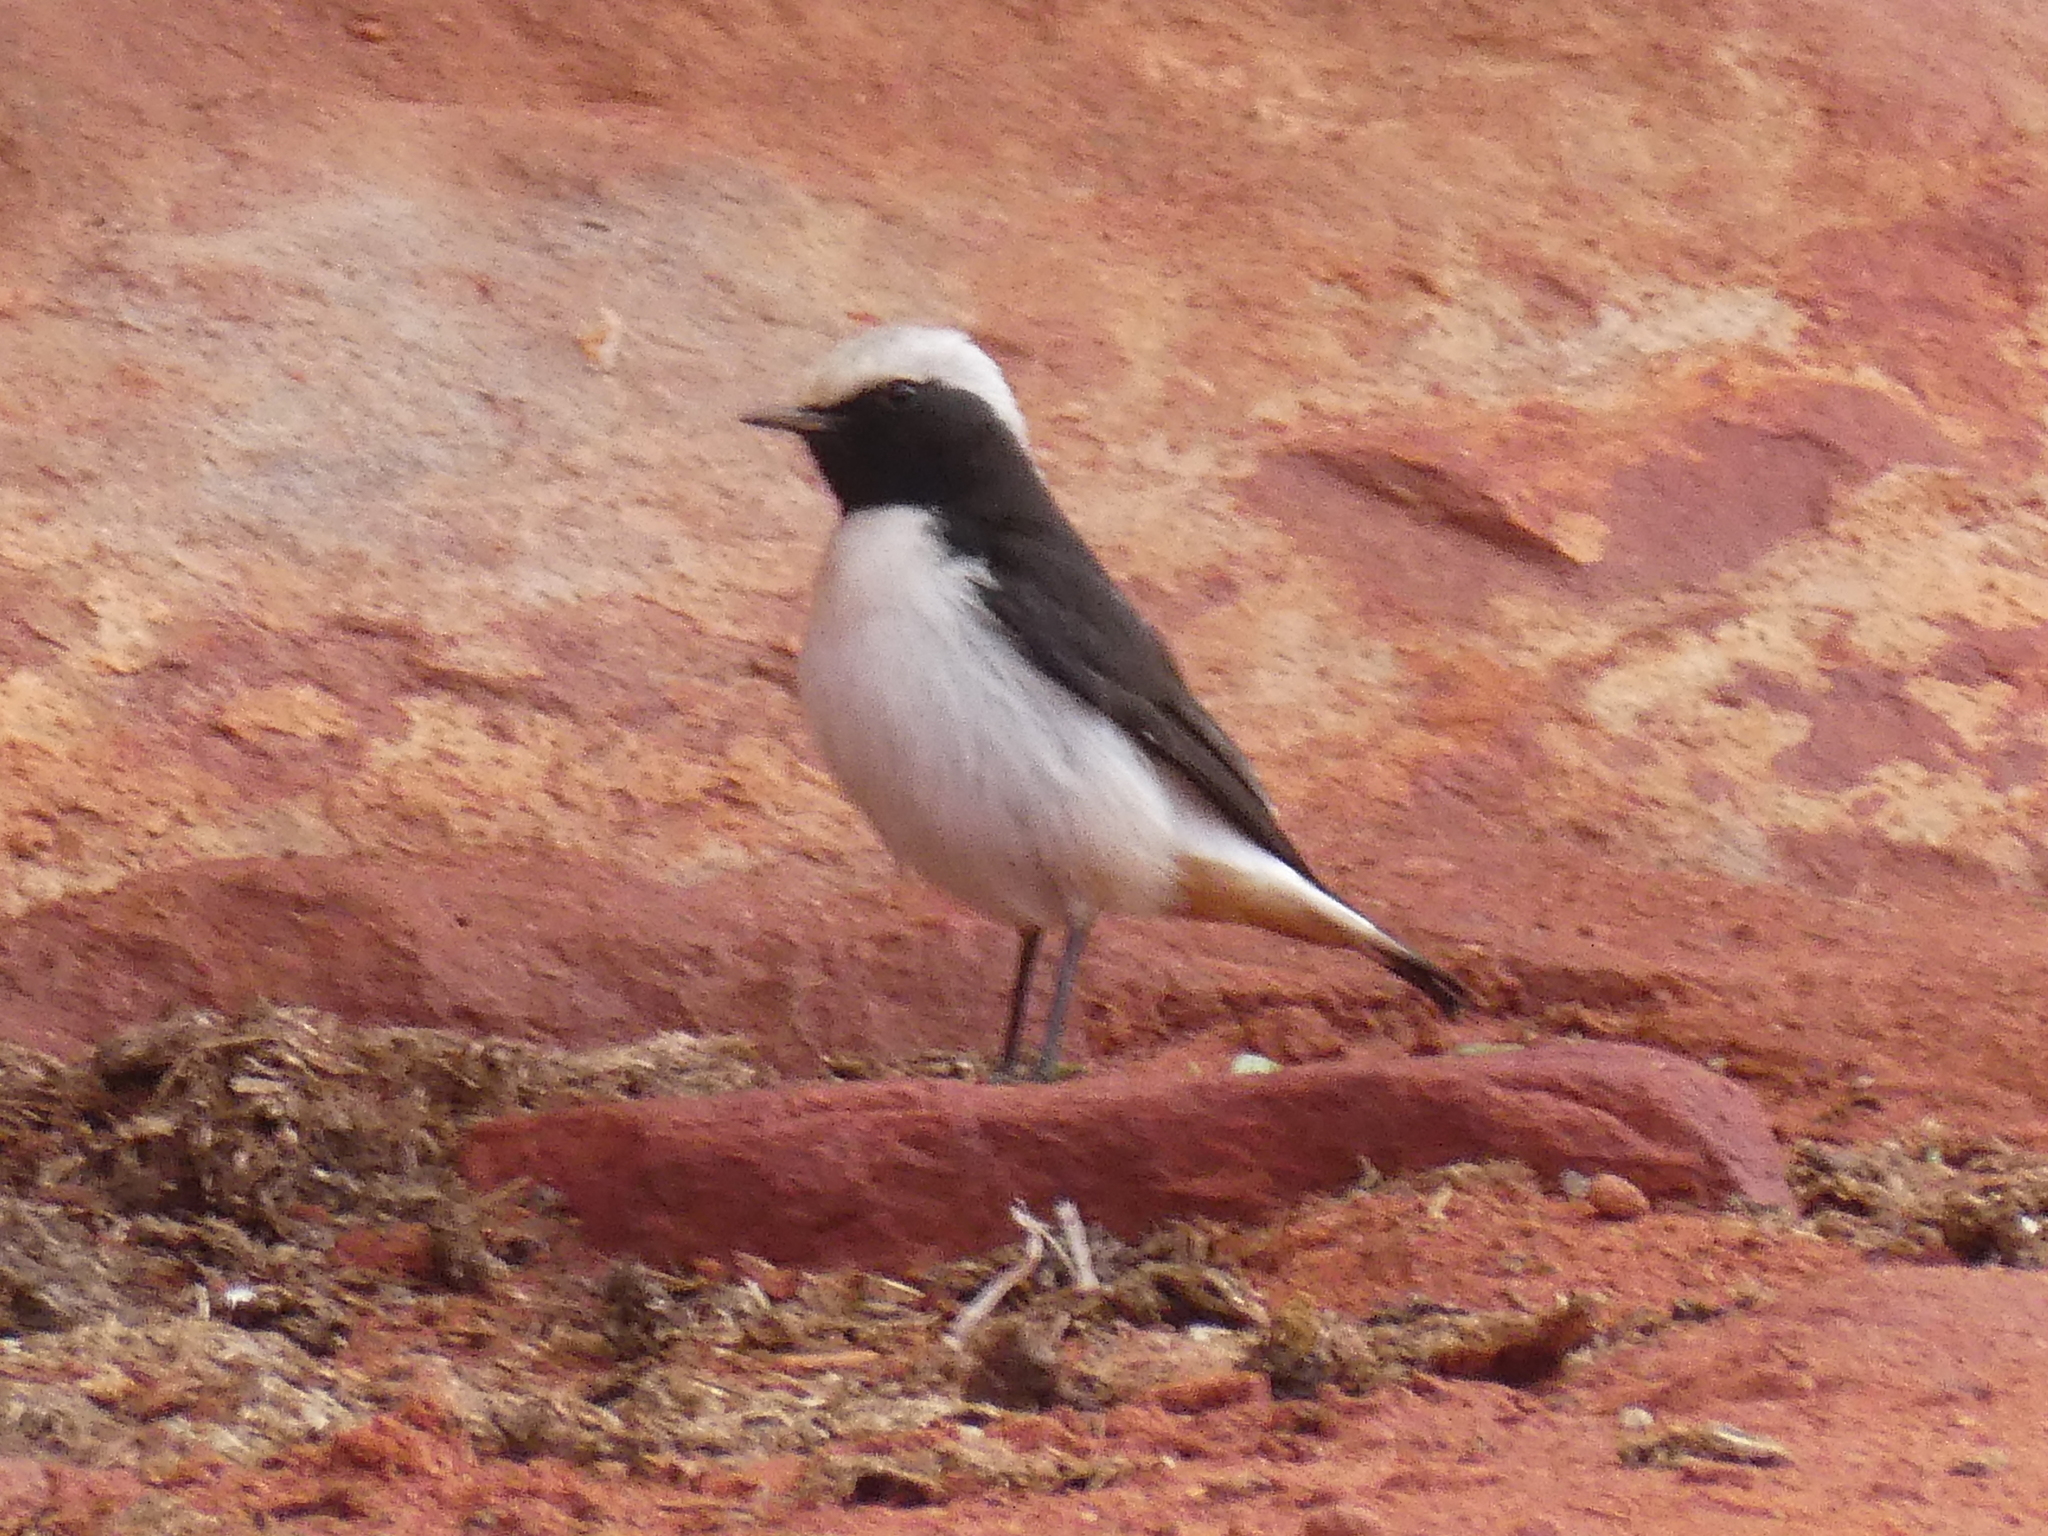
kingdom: Animalia
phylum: Chordata
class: Aves
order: Passeriformes
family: Muscicapidae
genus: Oenanthe
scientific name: Oenanthe lugens
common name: Mourning wheatear
